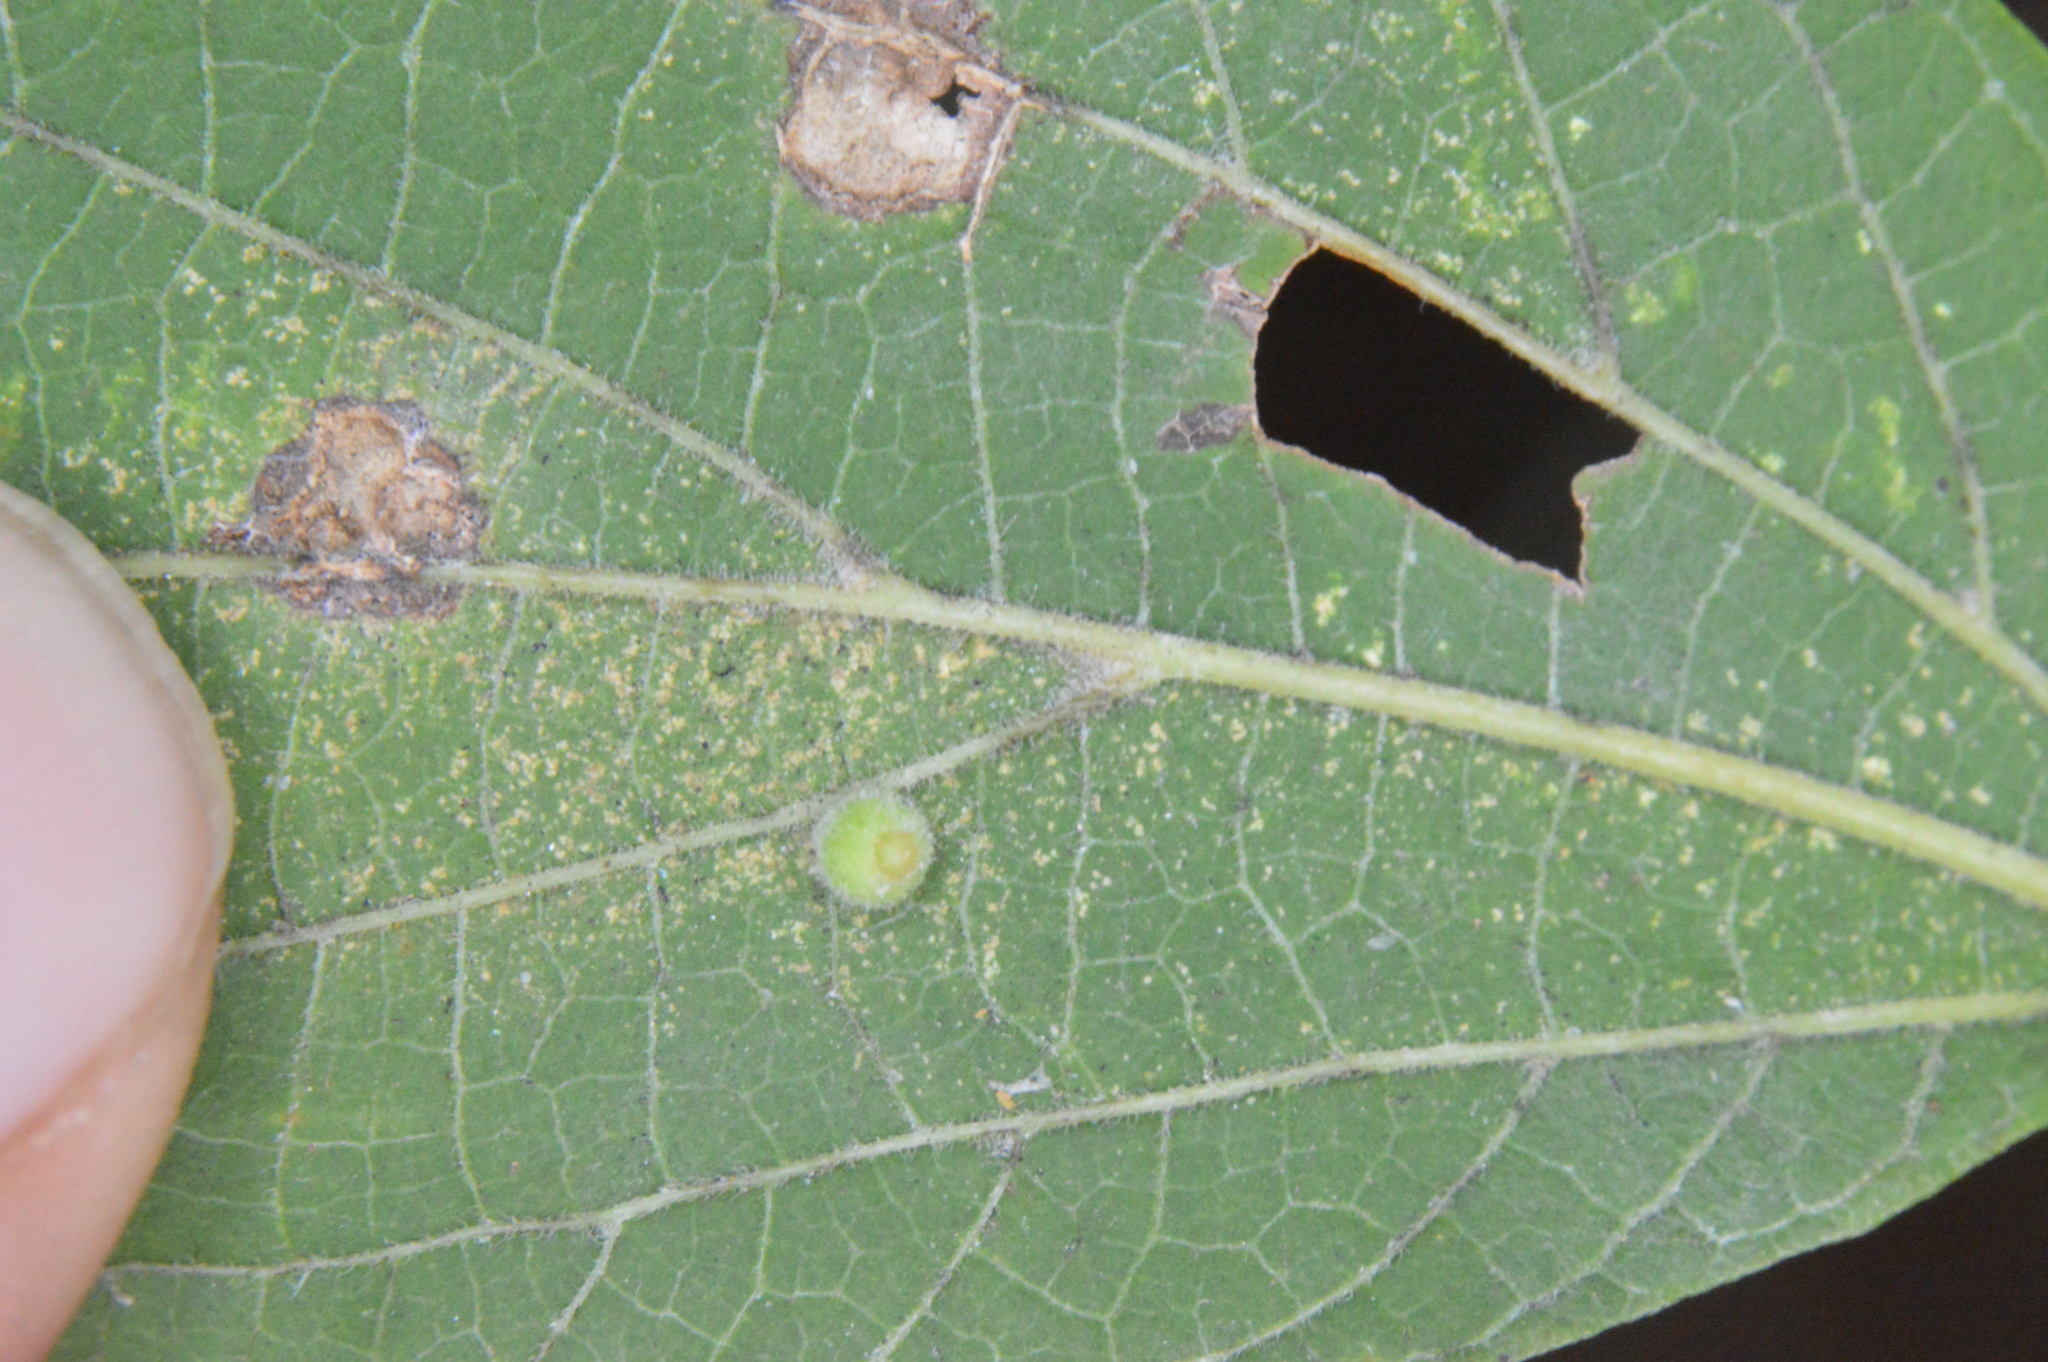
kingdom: Animalia
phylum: Arthropoda
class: Insecta
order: Diptera
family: Cecidomyiidae
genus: Celticecis
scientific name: Celticecis globosa
